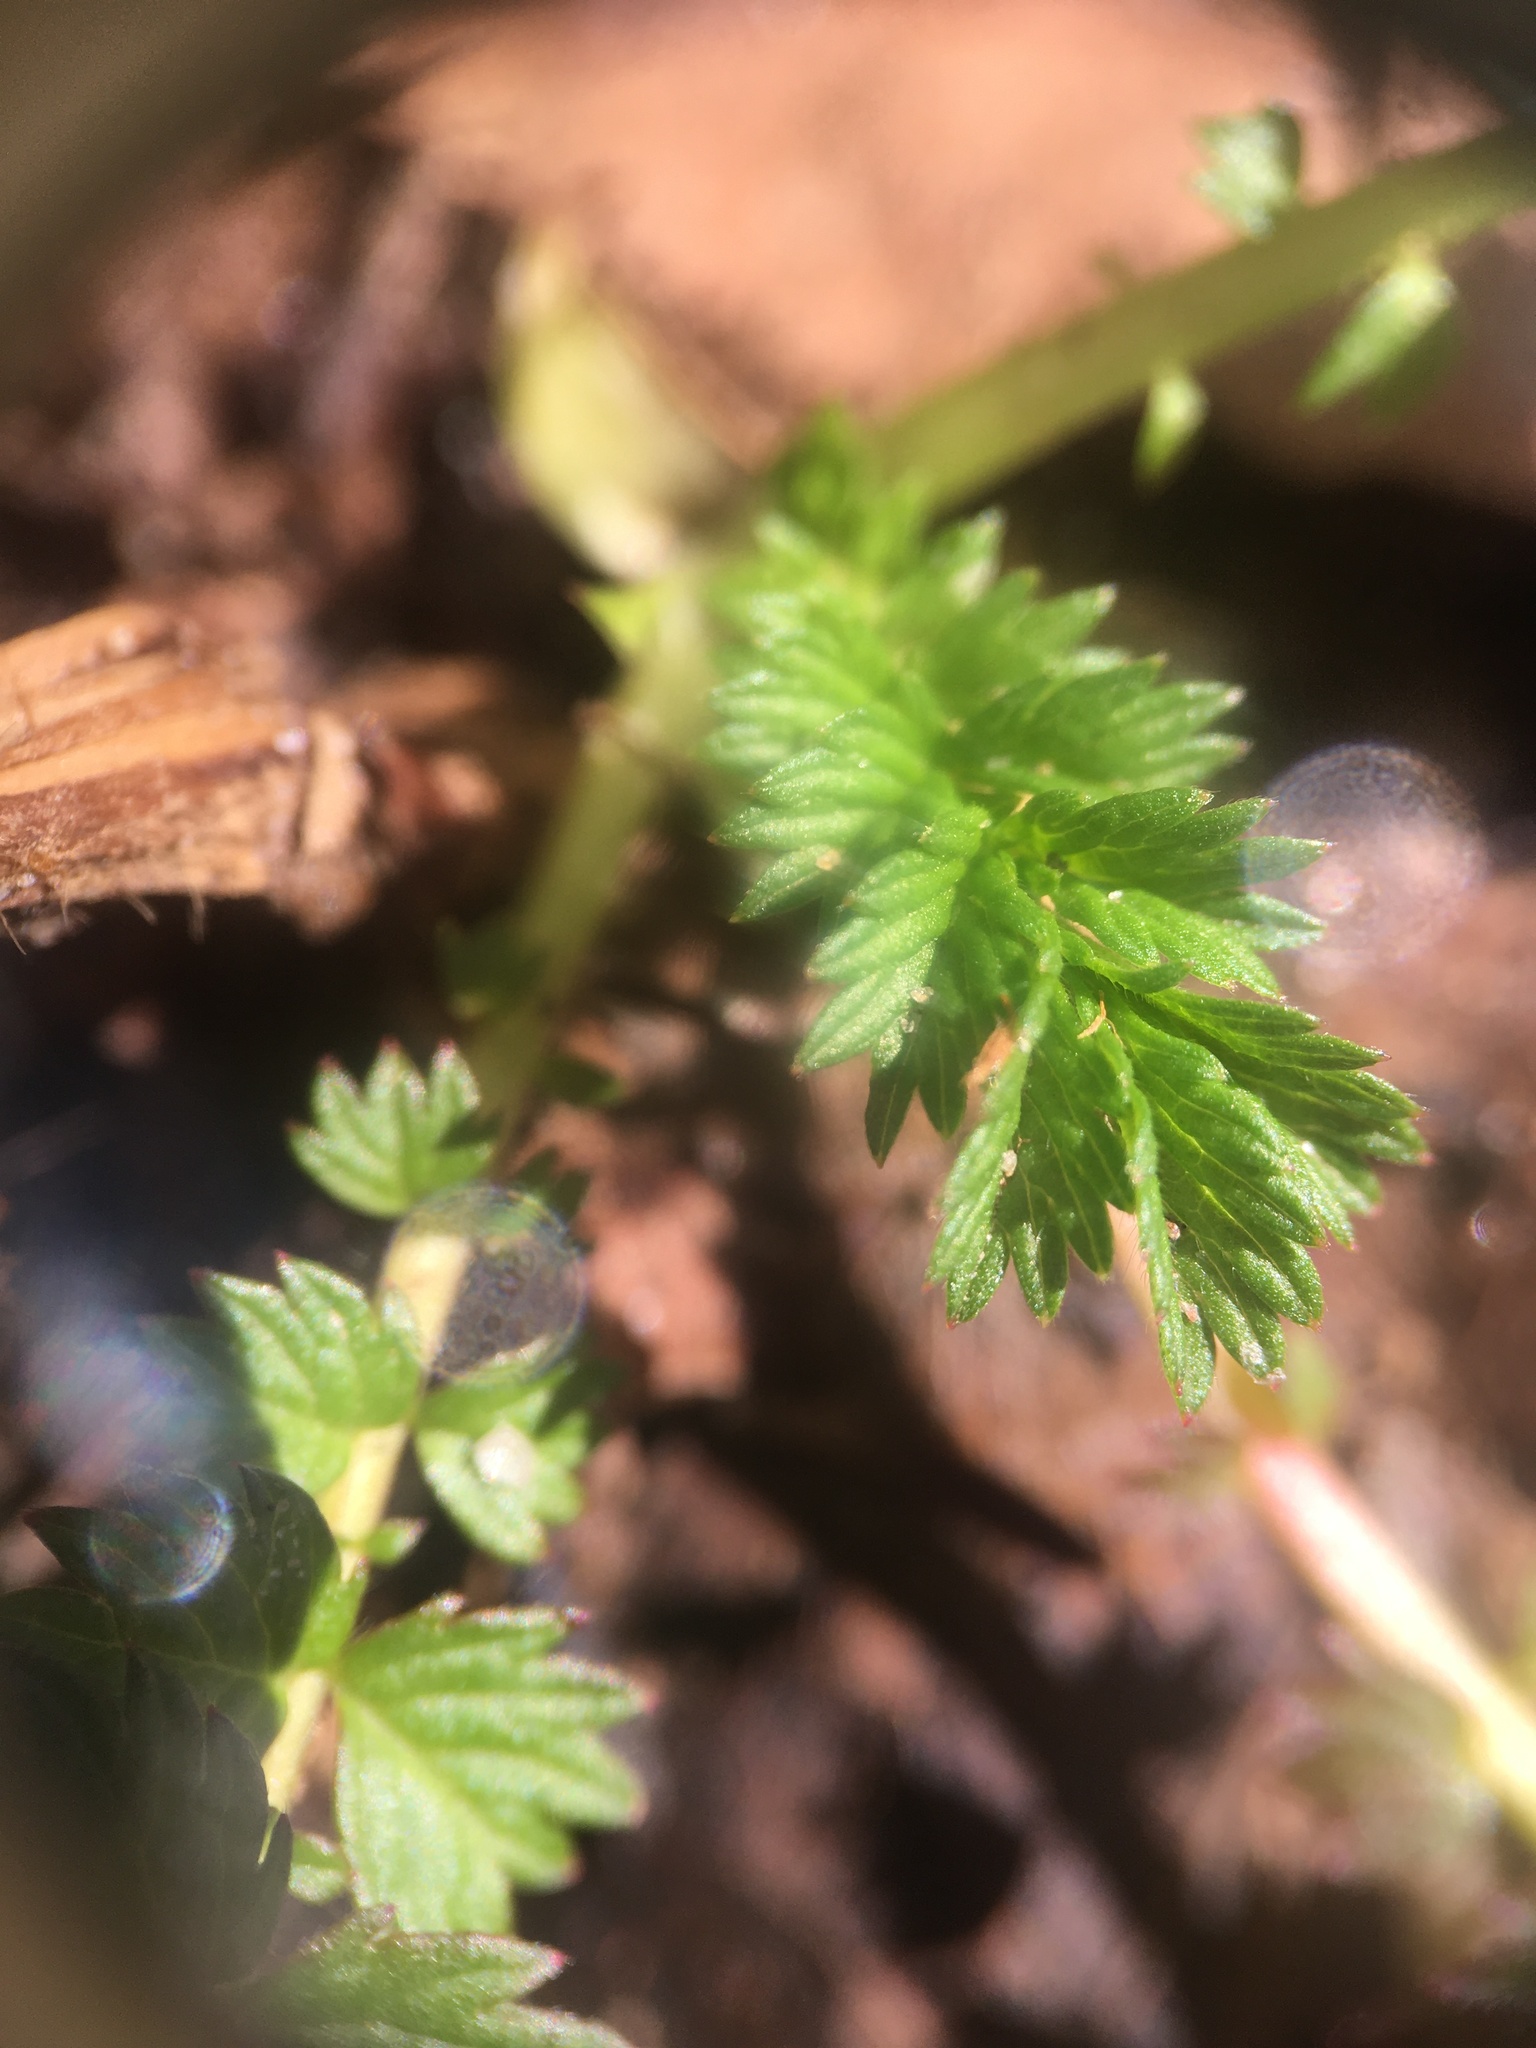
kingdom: Plantae
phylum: Tracheophyta
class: Magnoliopsida
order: Rosales
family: Rosaceae
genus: Agrimonia
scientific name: Agrimonia parviflora
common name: Harvest-lice
